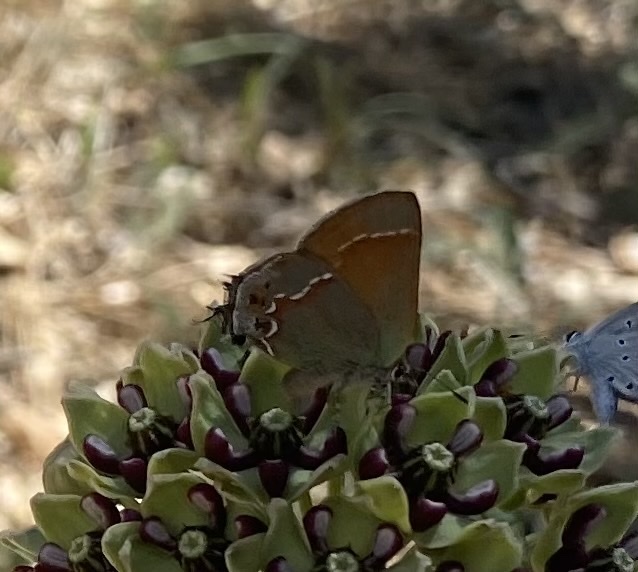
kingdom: Animalia
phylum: Arthropoda
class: Insecta
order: Lepidoptera
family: Lycaenidae
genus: Mitoura
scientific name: Mitoura gryneus
